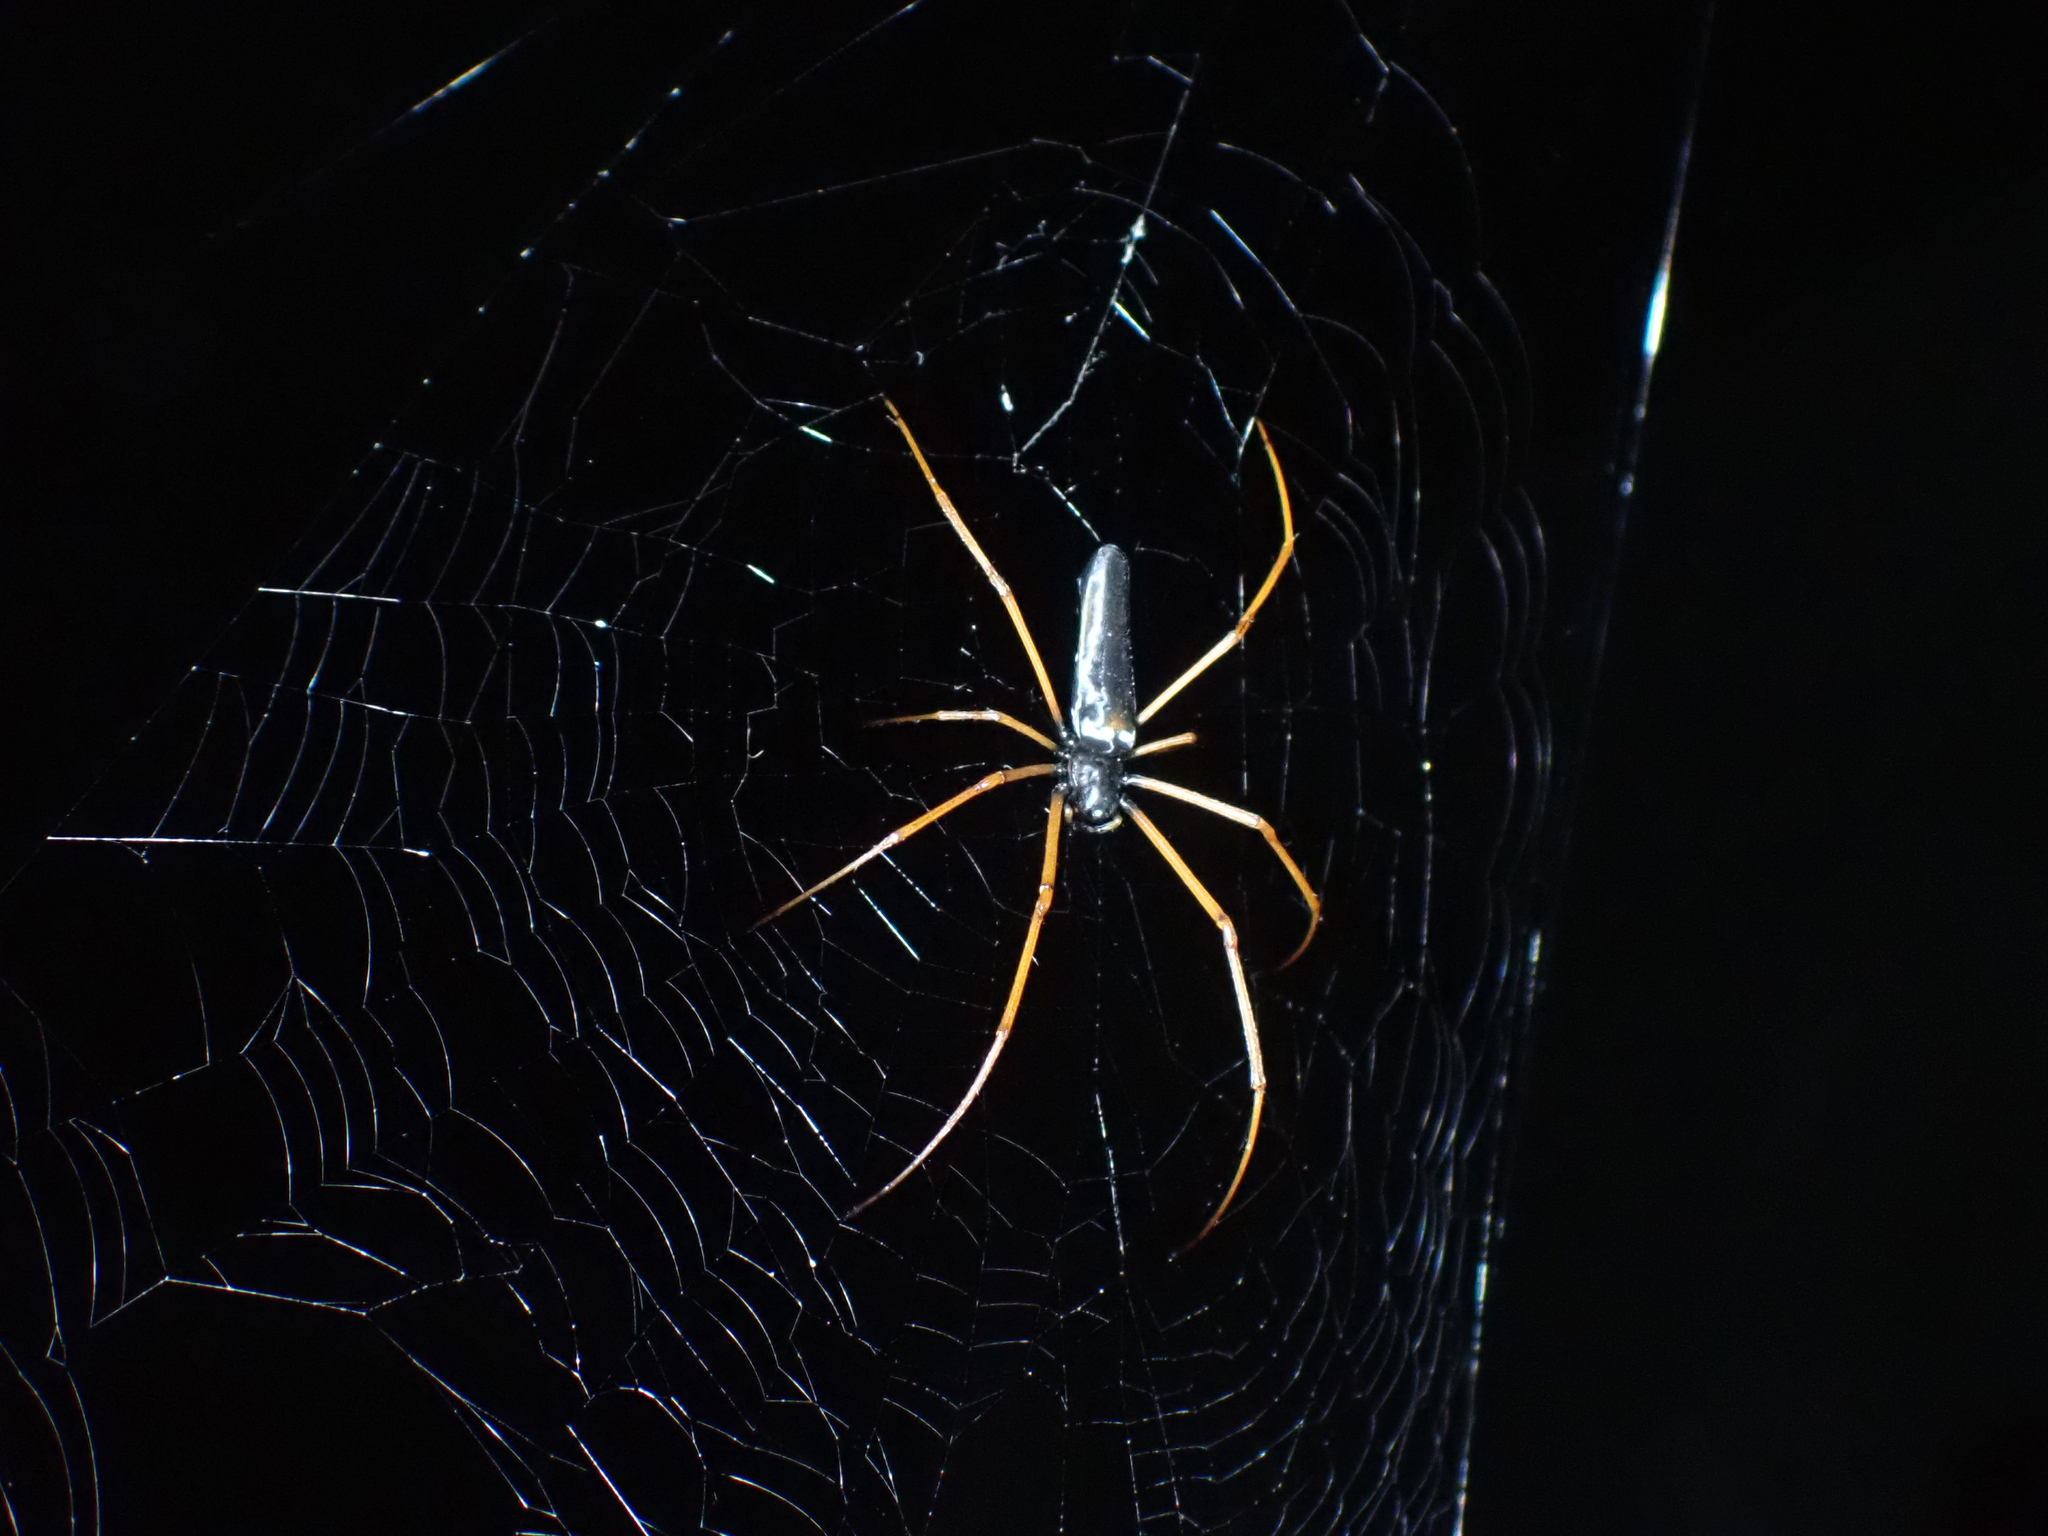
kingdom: Animalia
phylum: Arthropoda
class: Arachnida
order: Araneae
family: Araneidae
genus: Nephila
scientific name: Nephila kuhli
